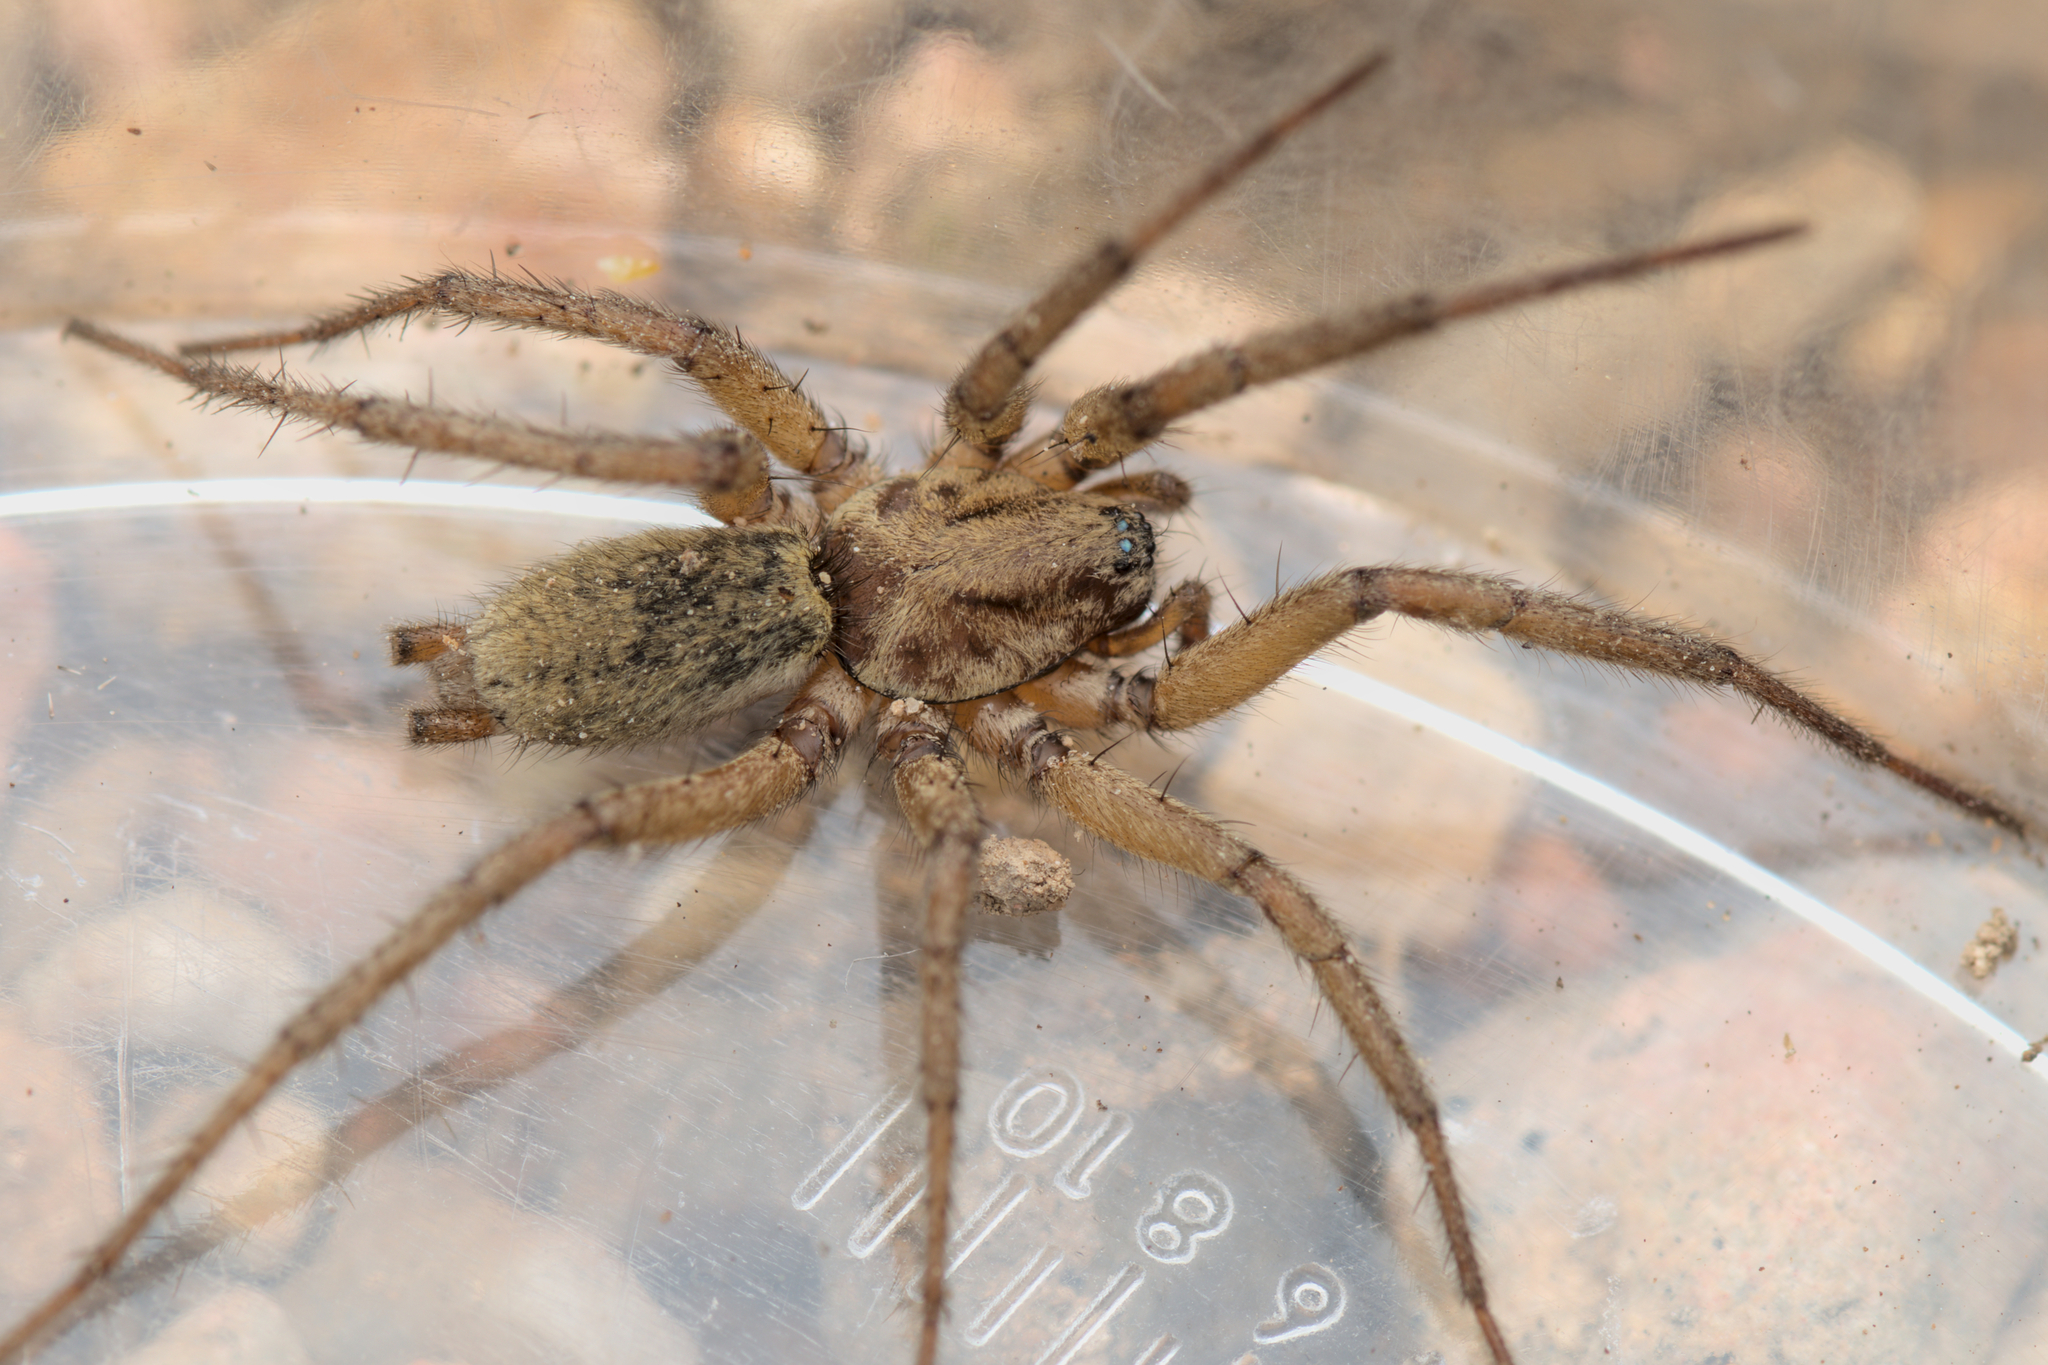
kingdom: Animalia
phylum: Arthropoda
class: Arachnida
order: Araneae
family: Gnaphosidae
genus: Nomisia
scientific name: Nomisia aussereri
